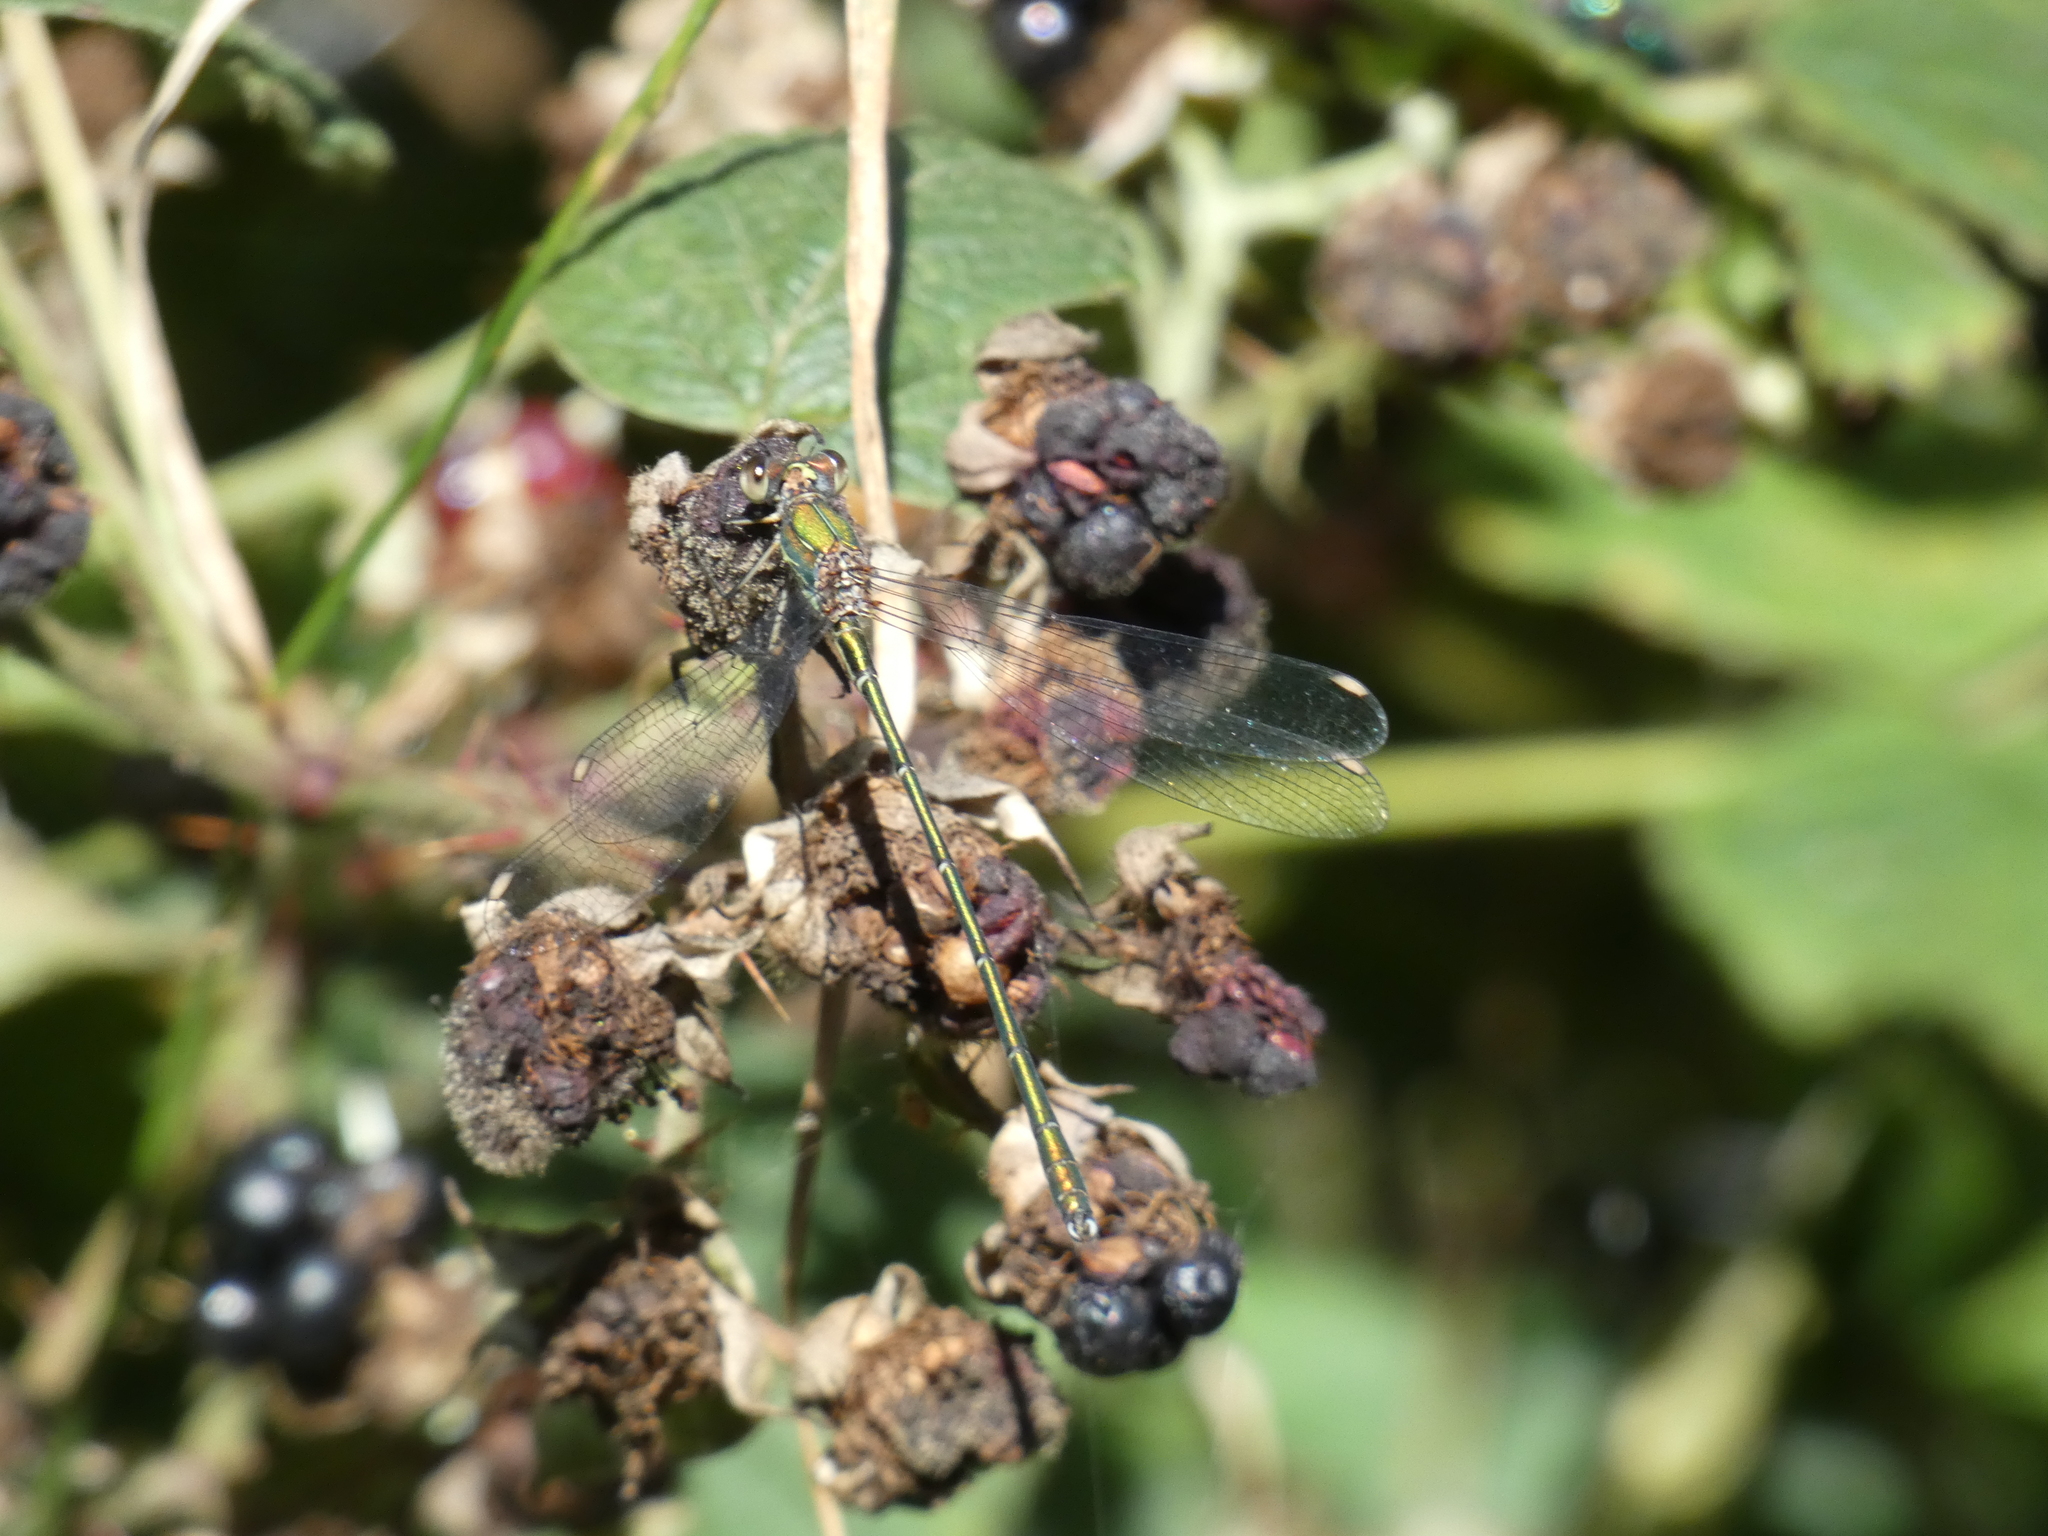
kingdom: Animalia
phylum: Arthropoda
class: Insecta
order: Odonata
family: Lestidae
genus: Chalcolestes
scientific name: Chalcolestes viridis
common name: Green emerald damselfly
